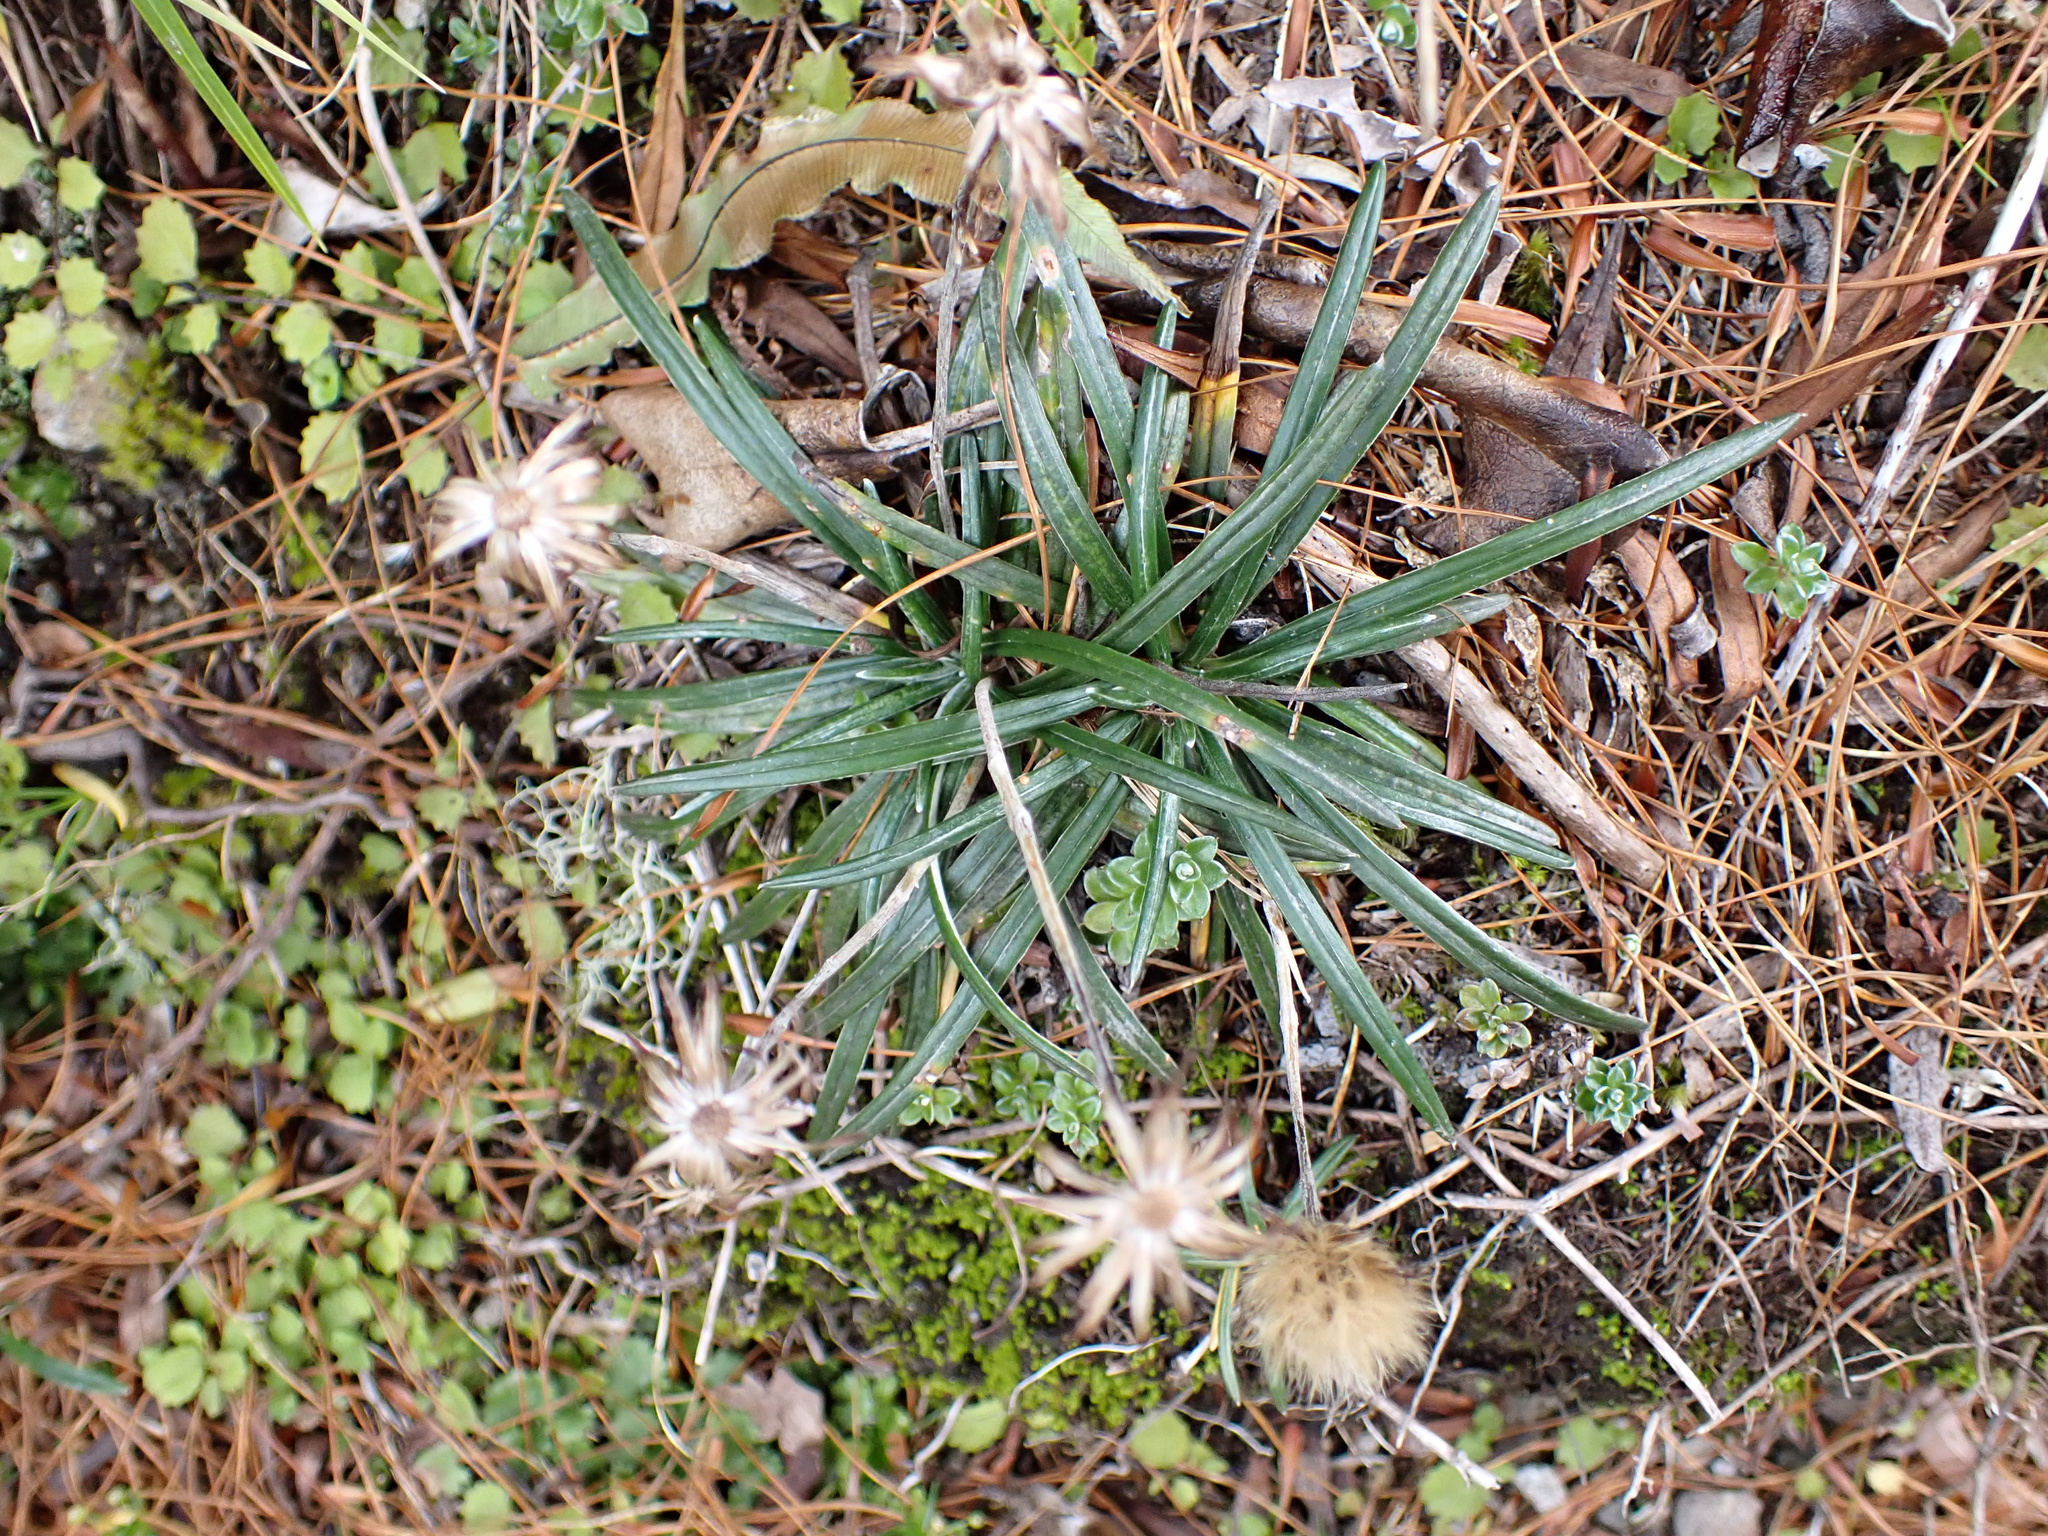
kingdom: Plantae
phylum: Tracheophyta
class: Magnoliopsida
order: Asterales
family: Asteraceae
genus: Celmisia
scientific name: Celmisia major
